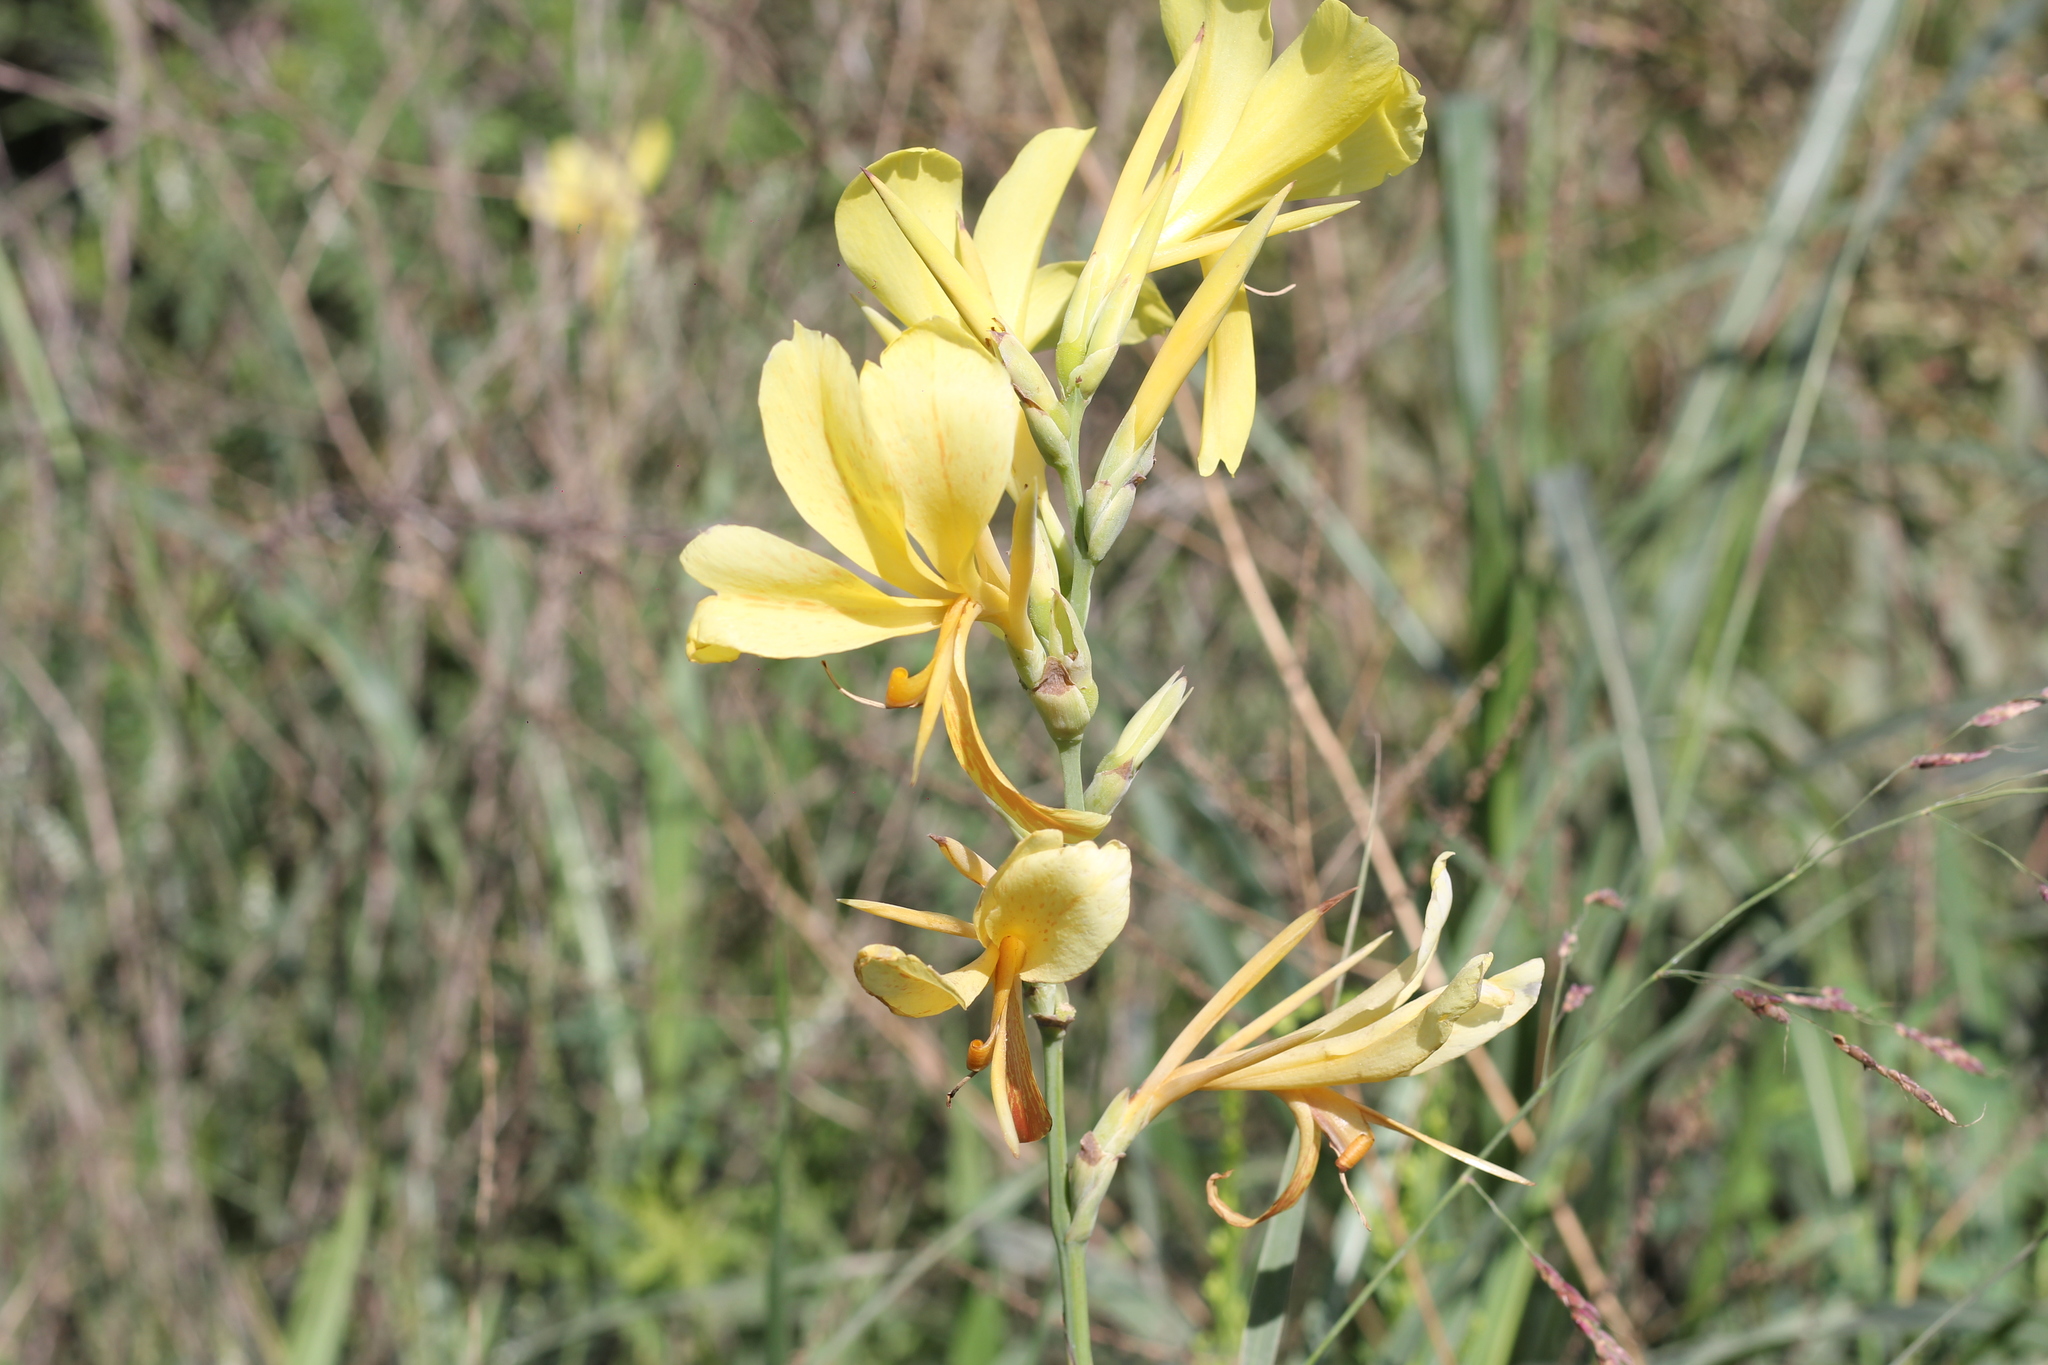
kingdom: Plantae
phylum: Tracheophyta
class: Liliopsida
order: Zingiberales
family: Cannaceae
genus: Canna
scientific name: Canna glauca
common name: Louisiana canna
